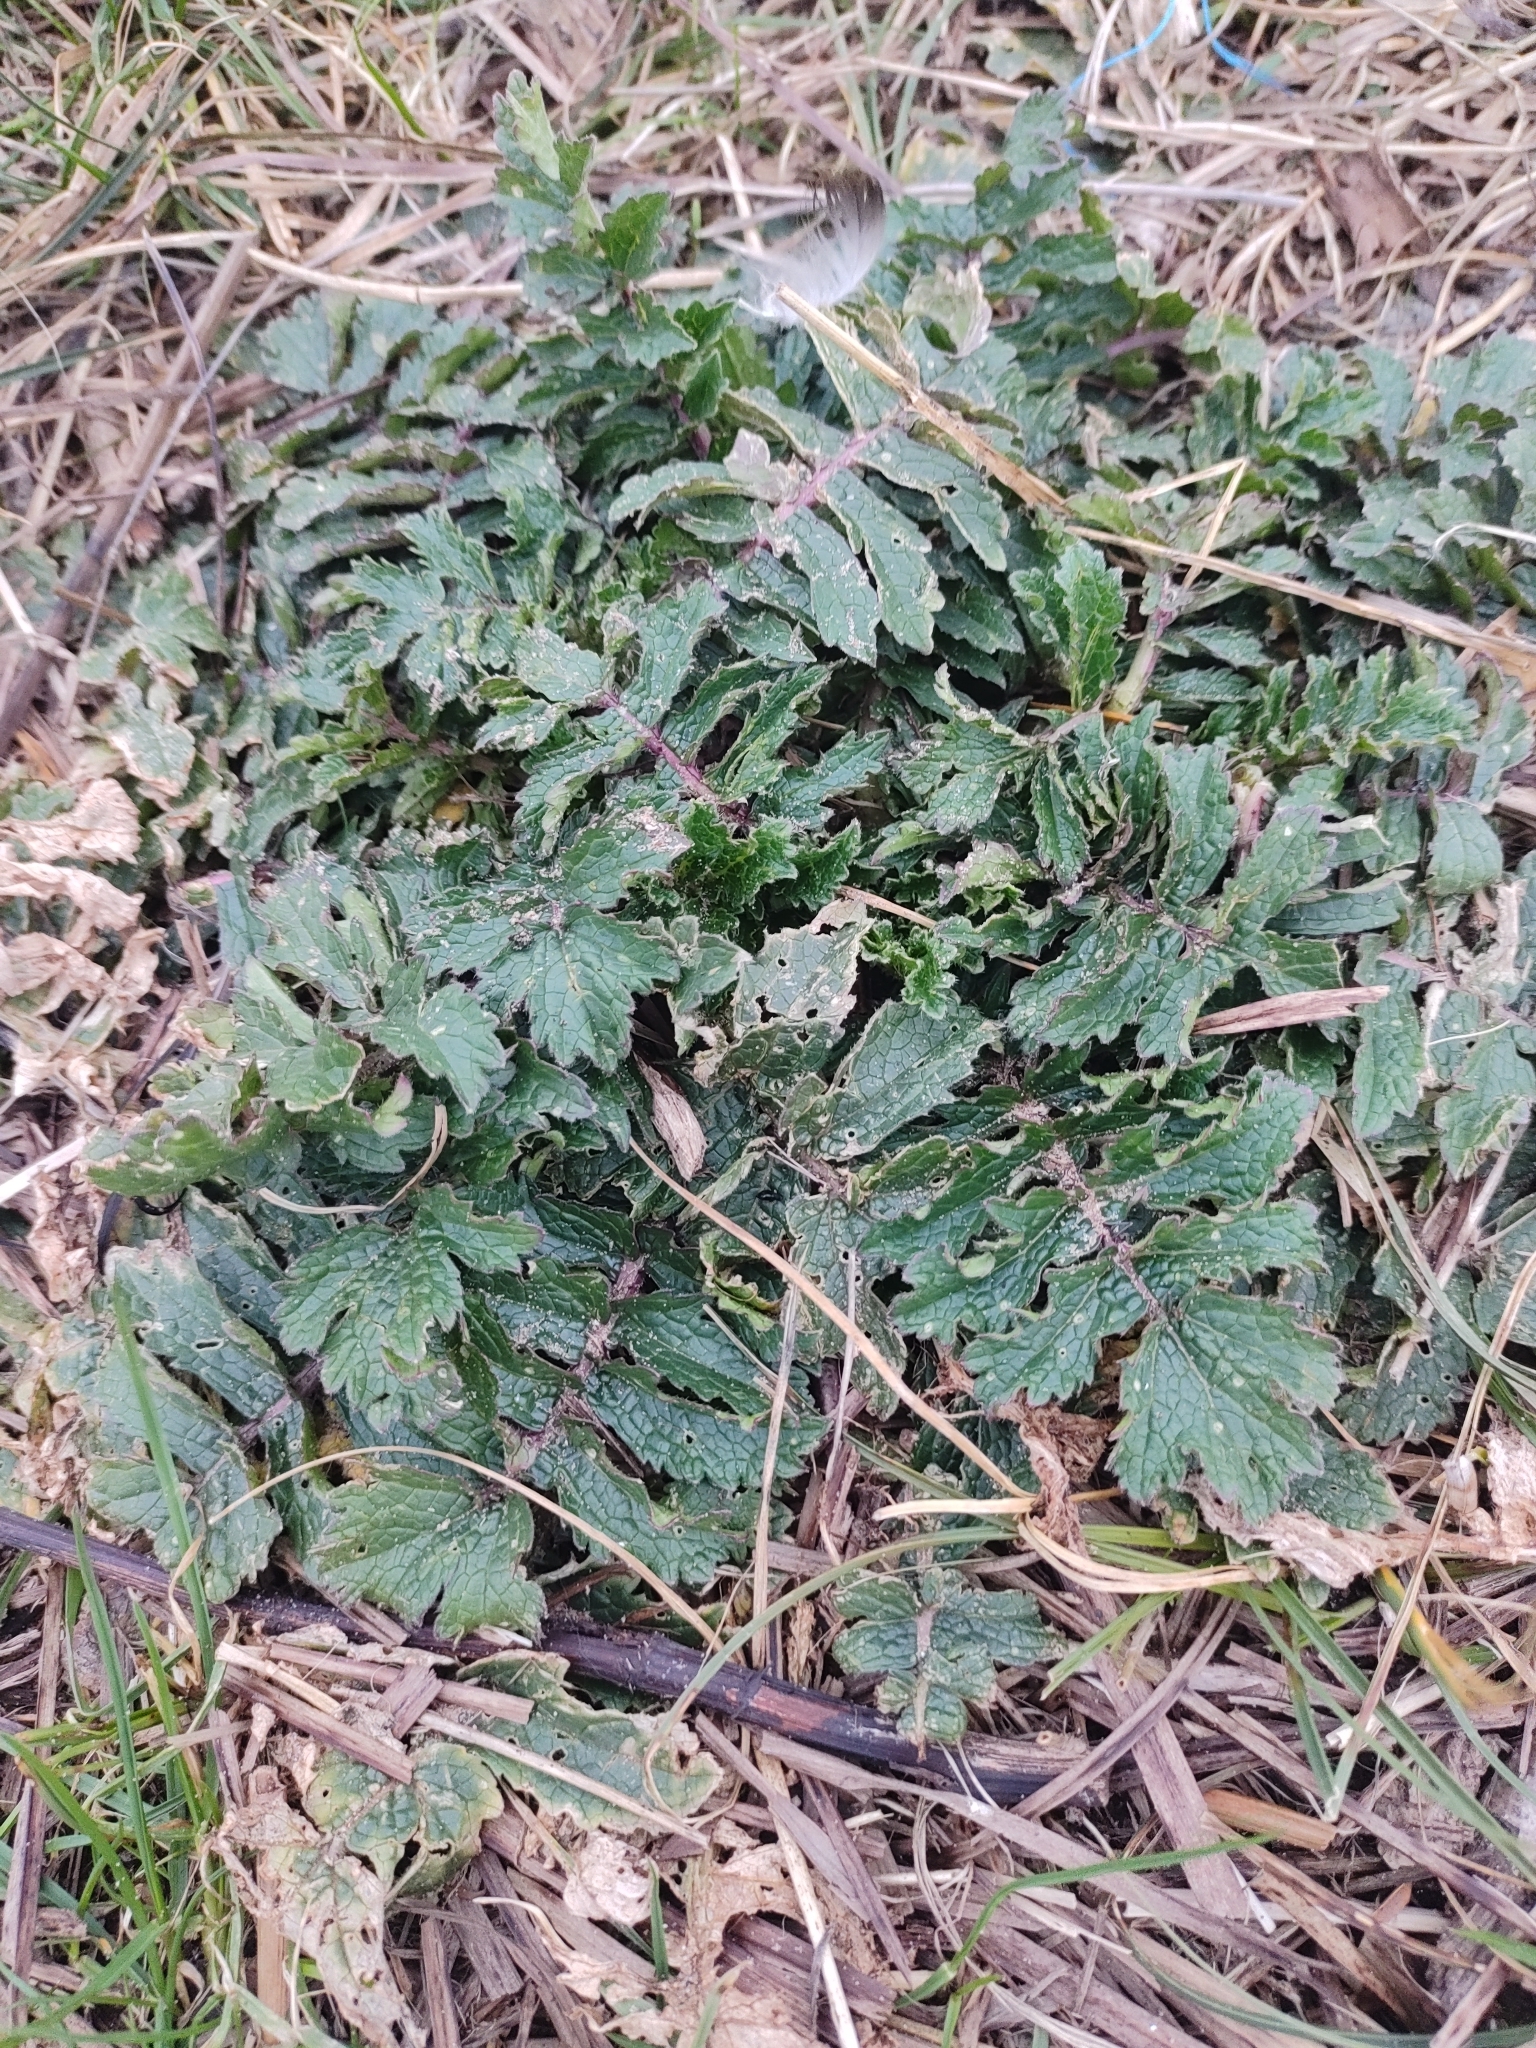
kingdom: Plantae
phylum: Tracheophyta
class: Magnoliopsida
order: Brassicales
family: Brassicaceae
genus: Raphanus
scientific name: Raphanus raphanistrum
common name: Wild radish
